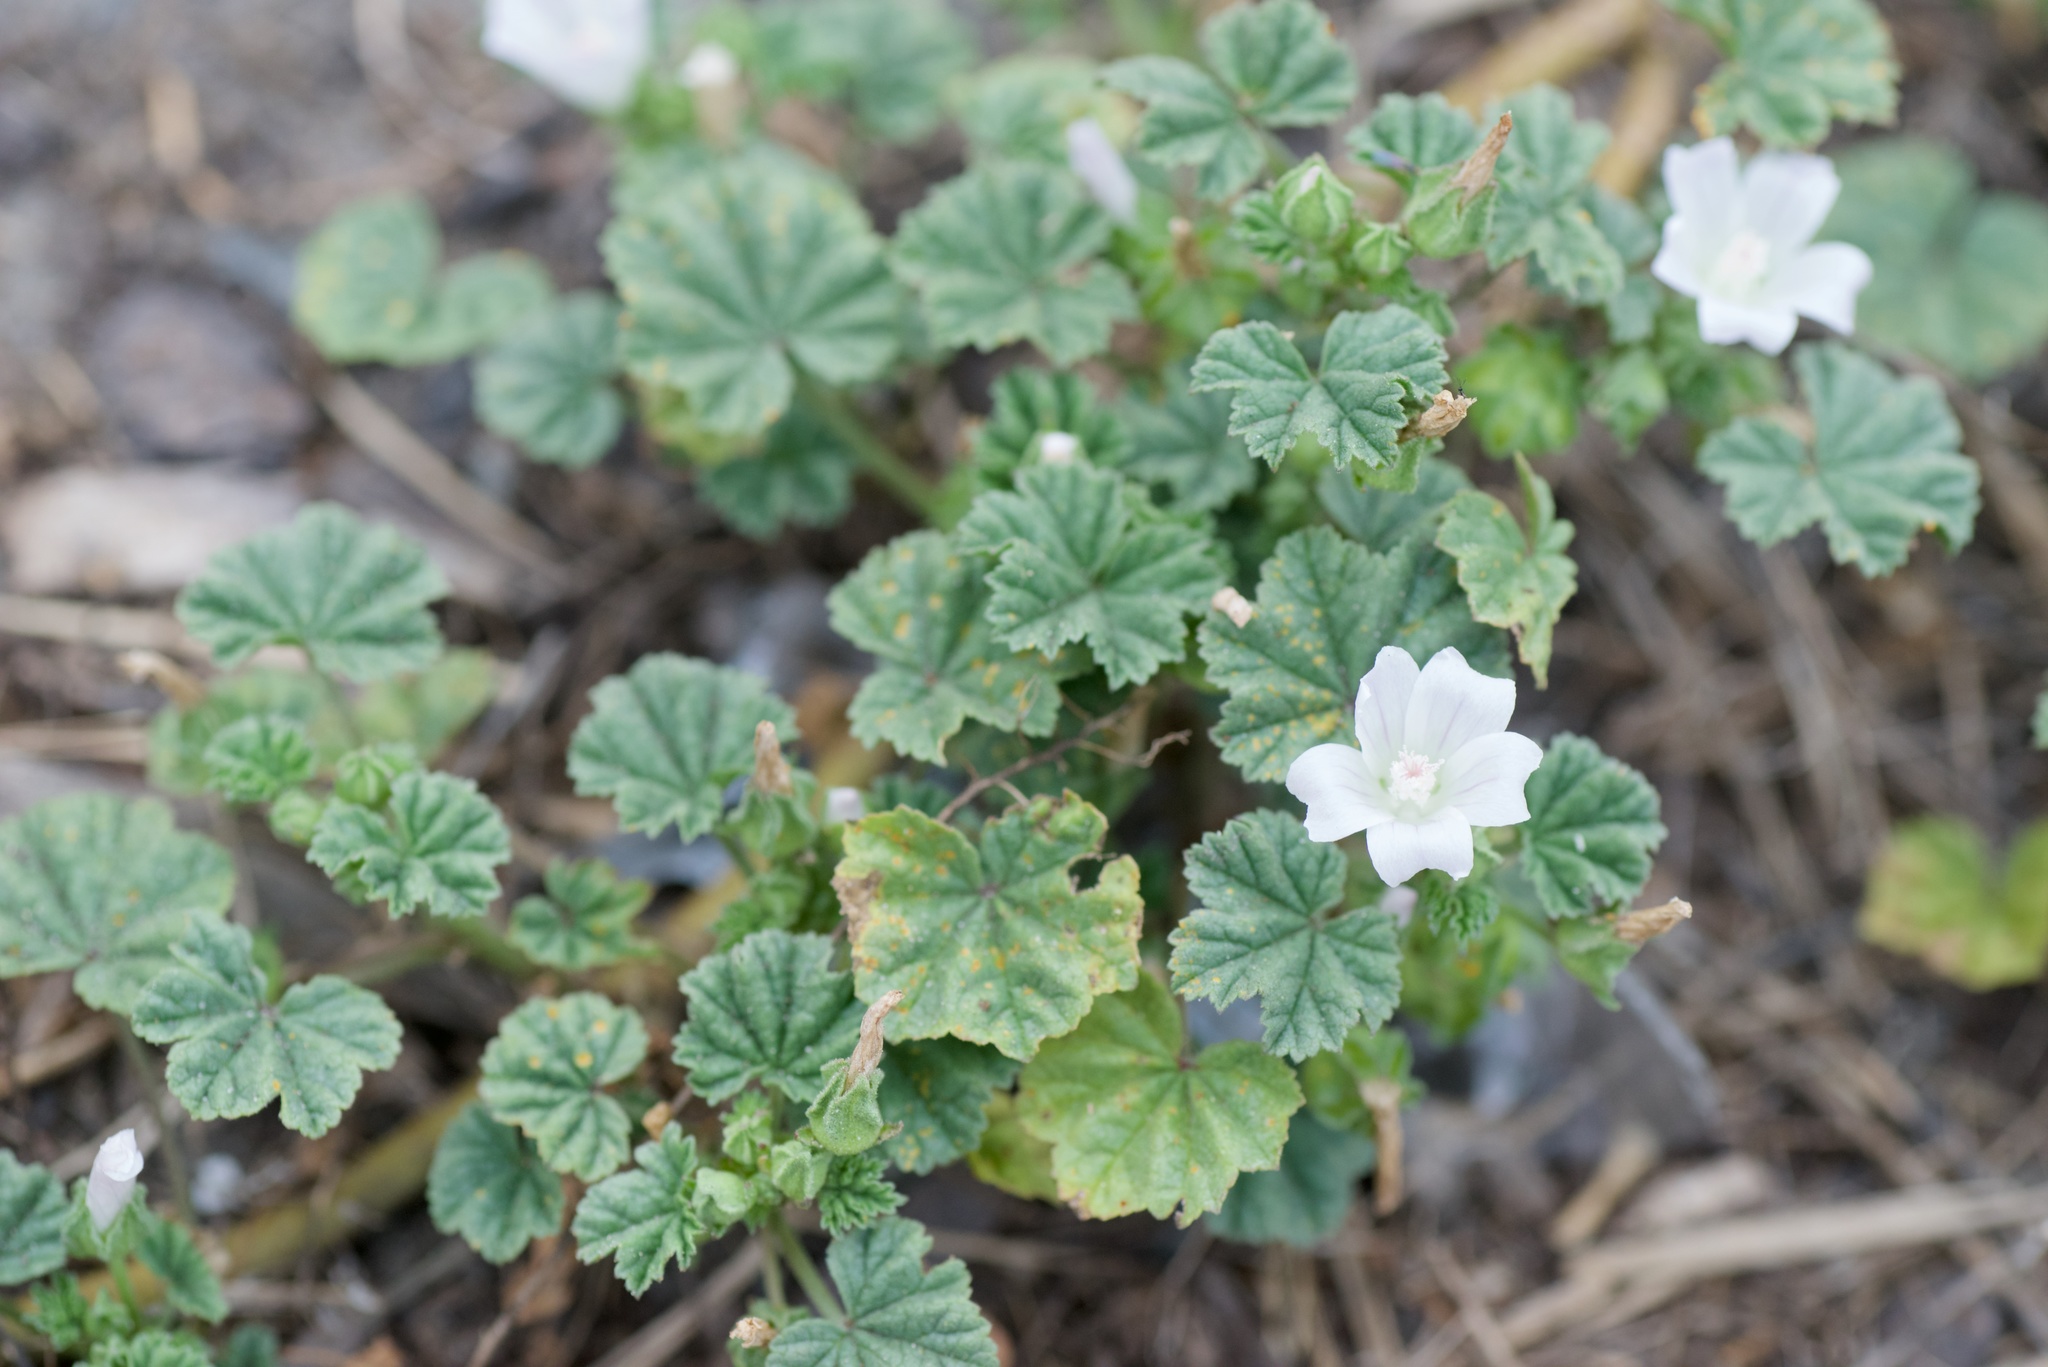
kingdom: Plantae
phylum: Tracheophyta
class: Magnoliopsida
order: Malvales
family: Malvaceae
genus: Malva
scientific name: Malva neglecta
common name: Common mallow
